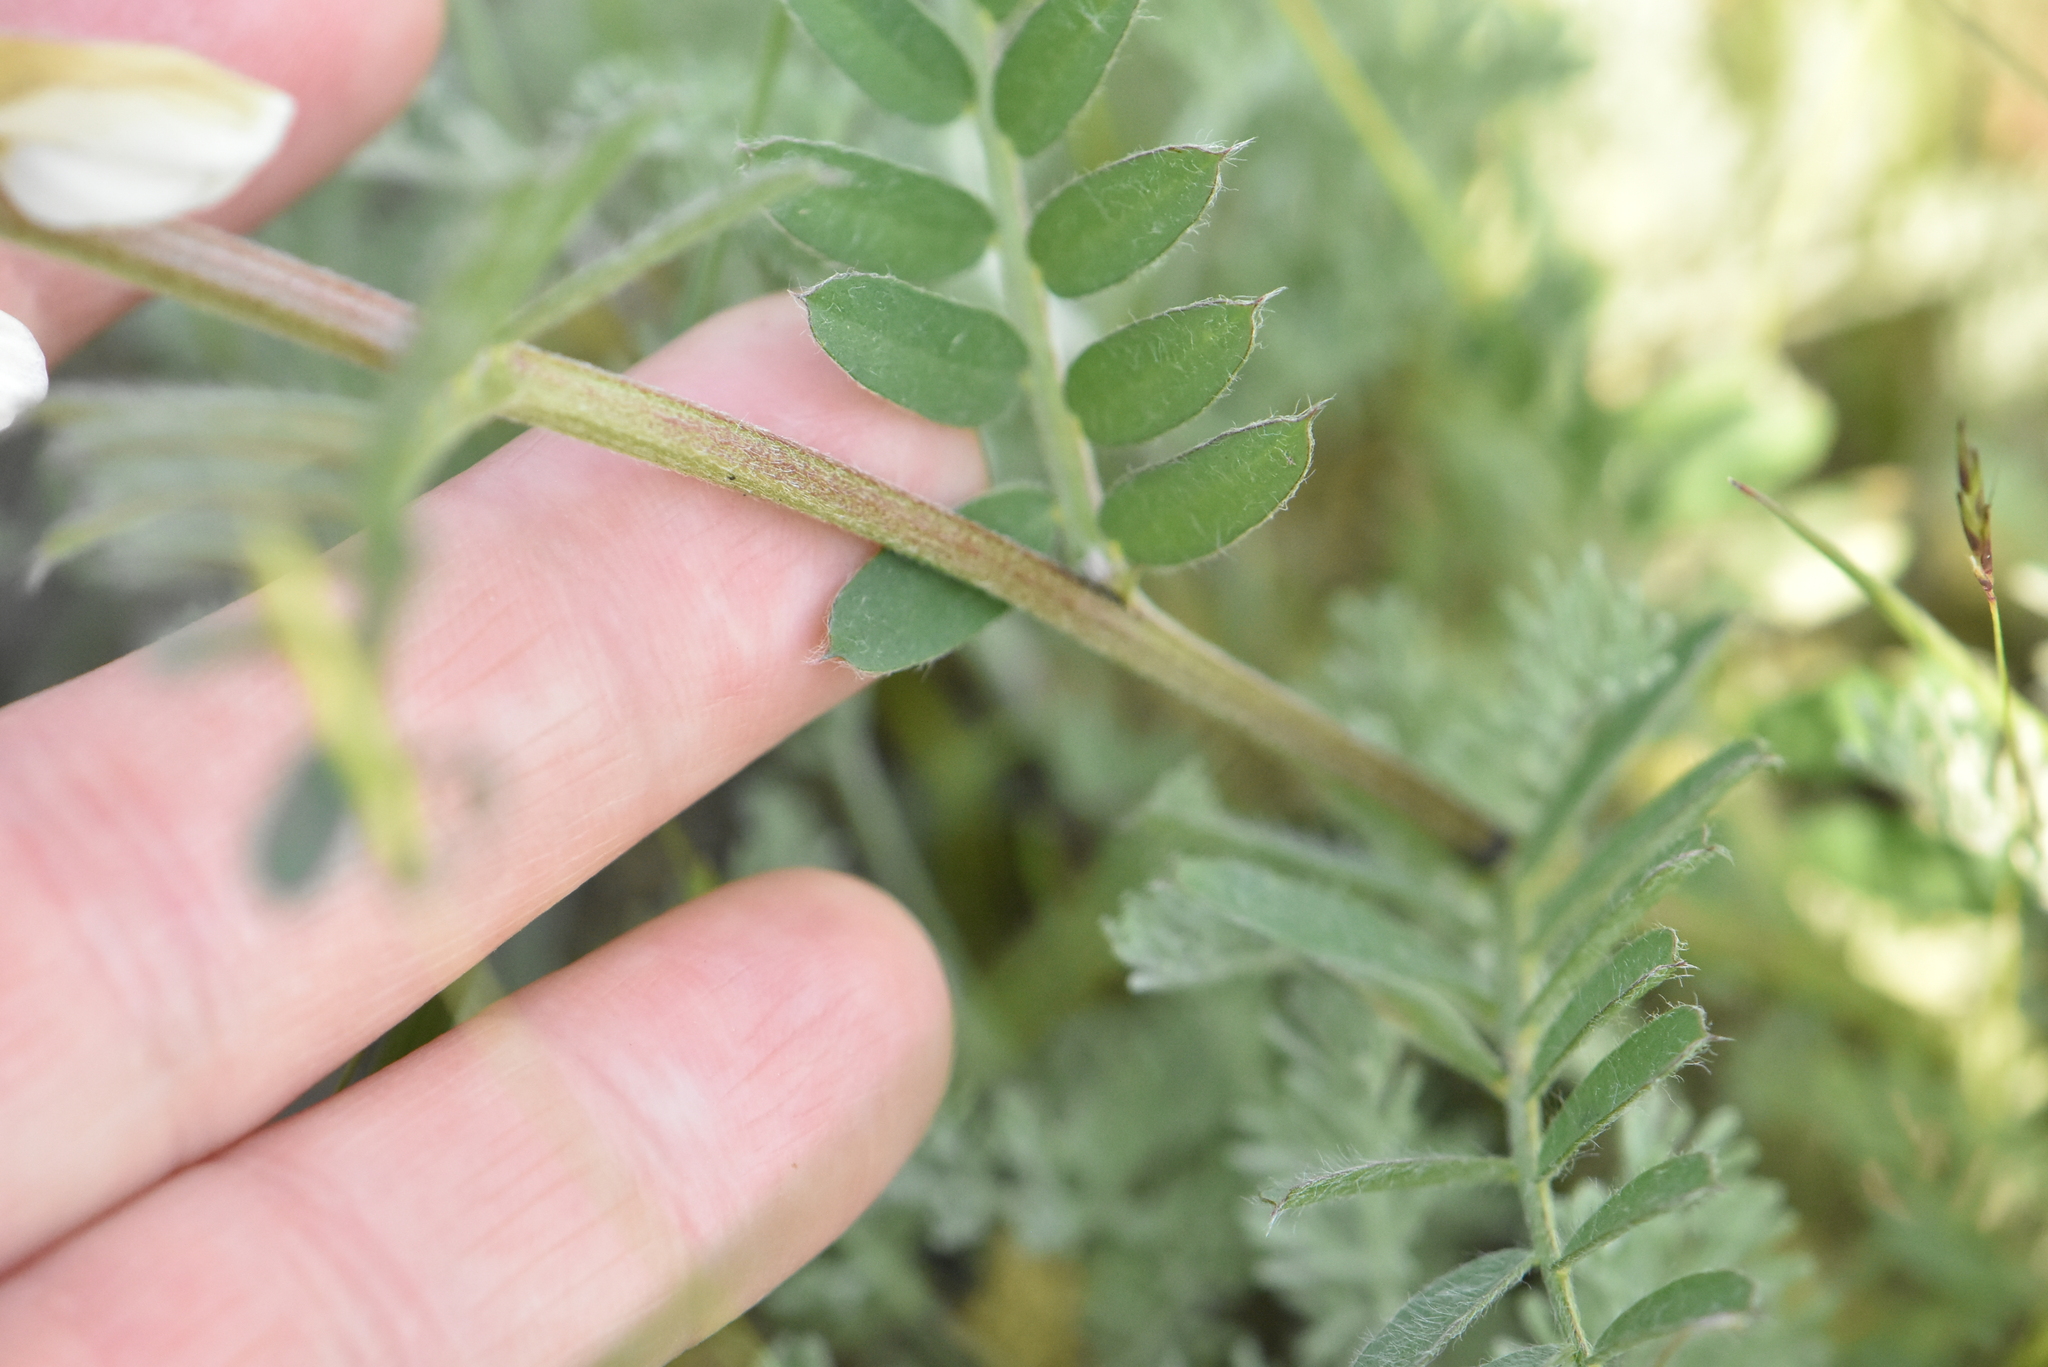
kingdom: Plantae
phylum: Tracheophyta
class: Magnoliopsida
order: Fabales
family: Fabaceae
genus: Vicia
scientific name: Vicia pannonica
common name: Hungarian vetch
